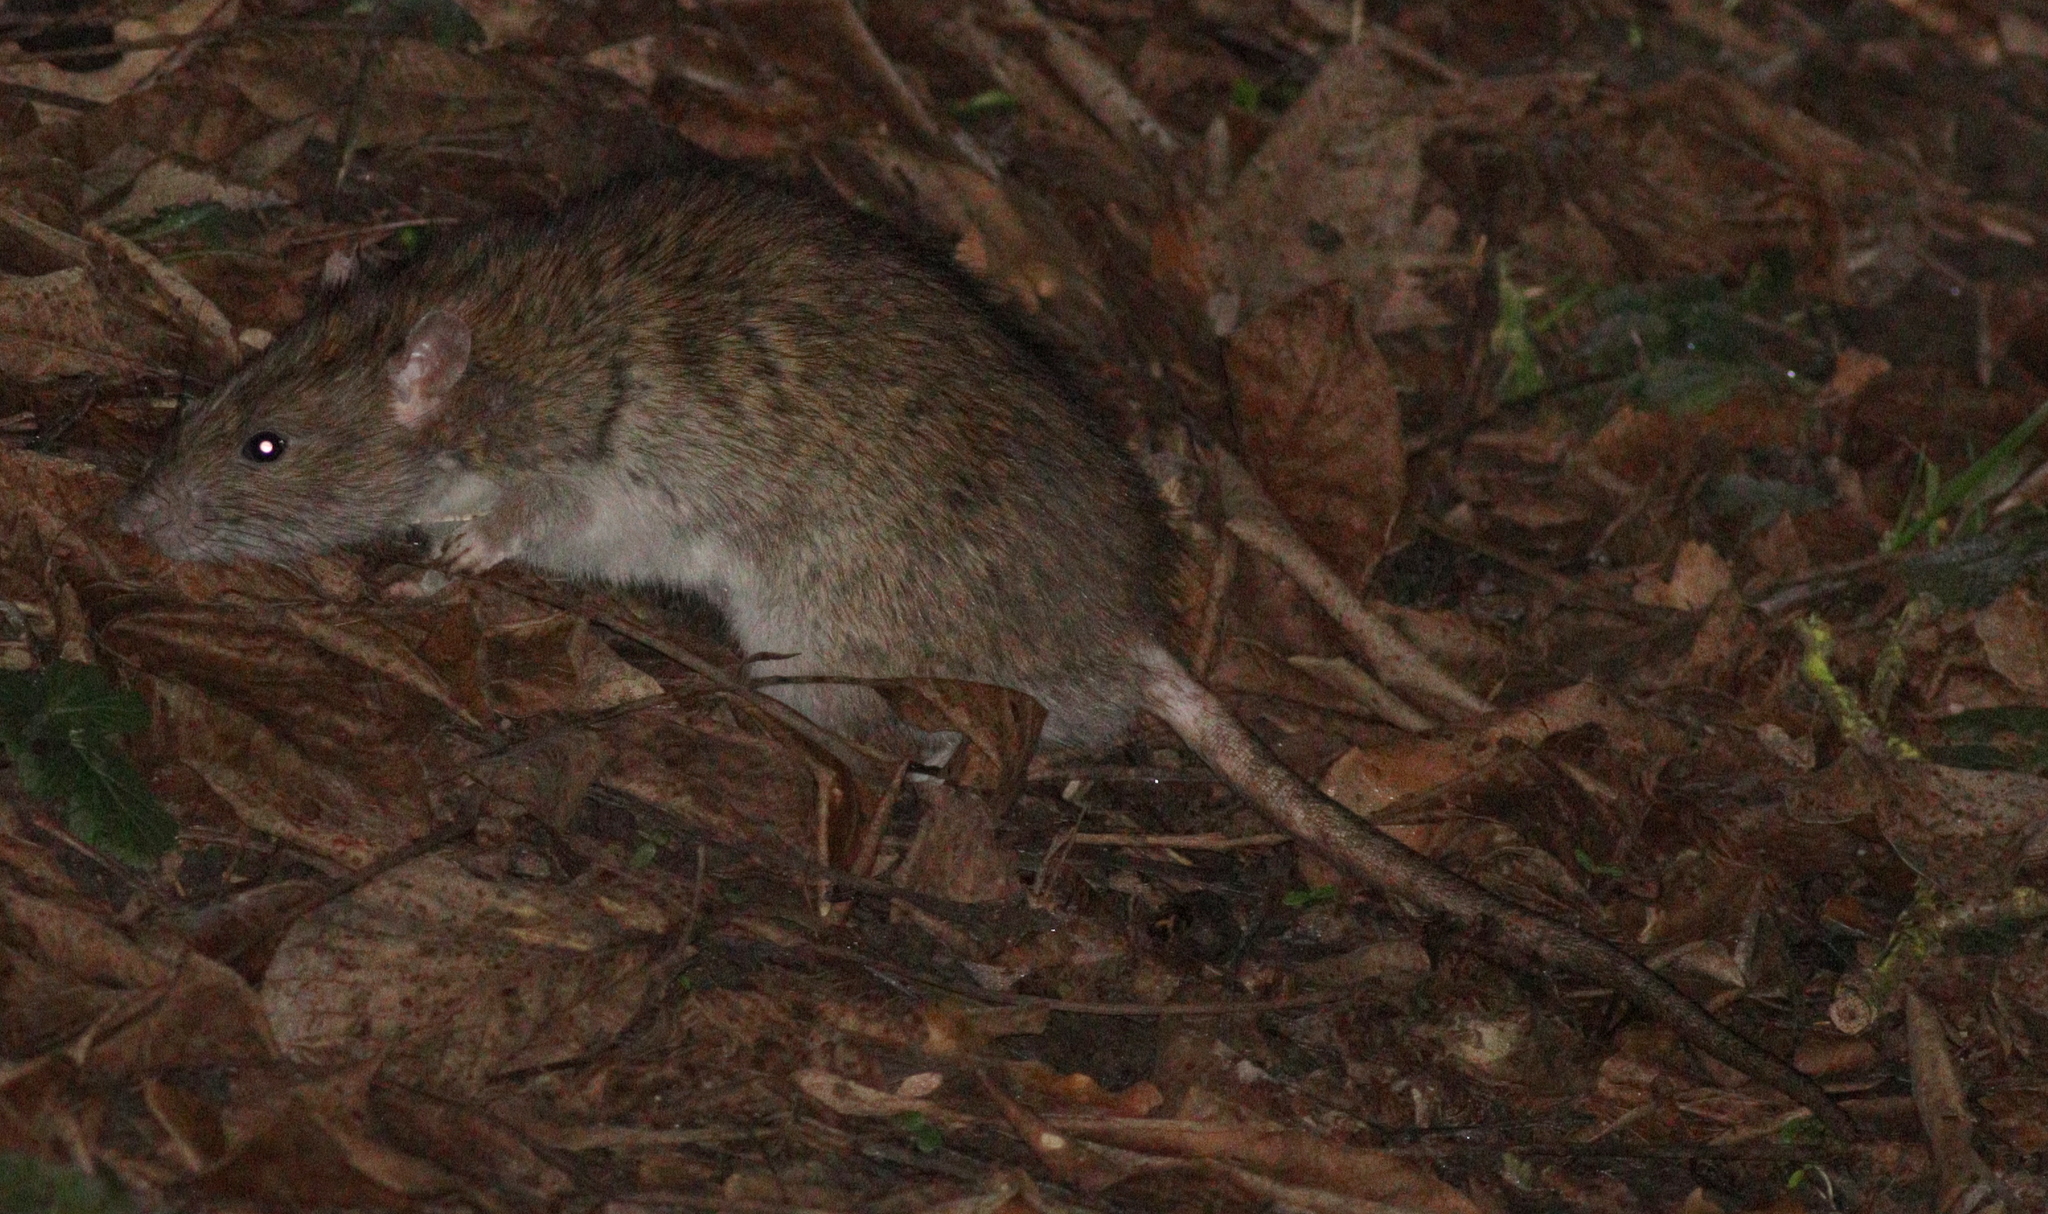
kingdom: Animalia
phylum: Chordata
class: Mammalia
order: Rodentia
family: Muridae
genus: Rattus
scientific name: Rattus norvegicus
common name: Brown rat
